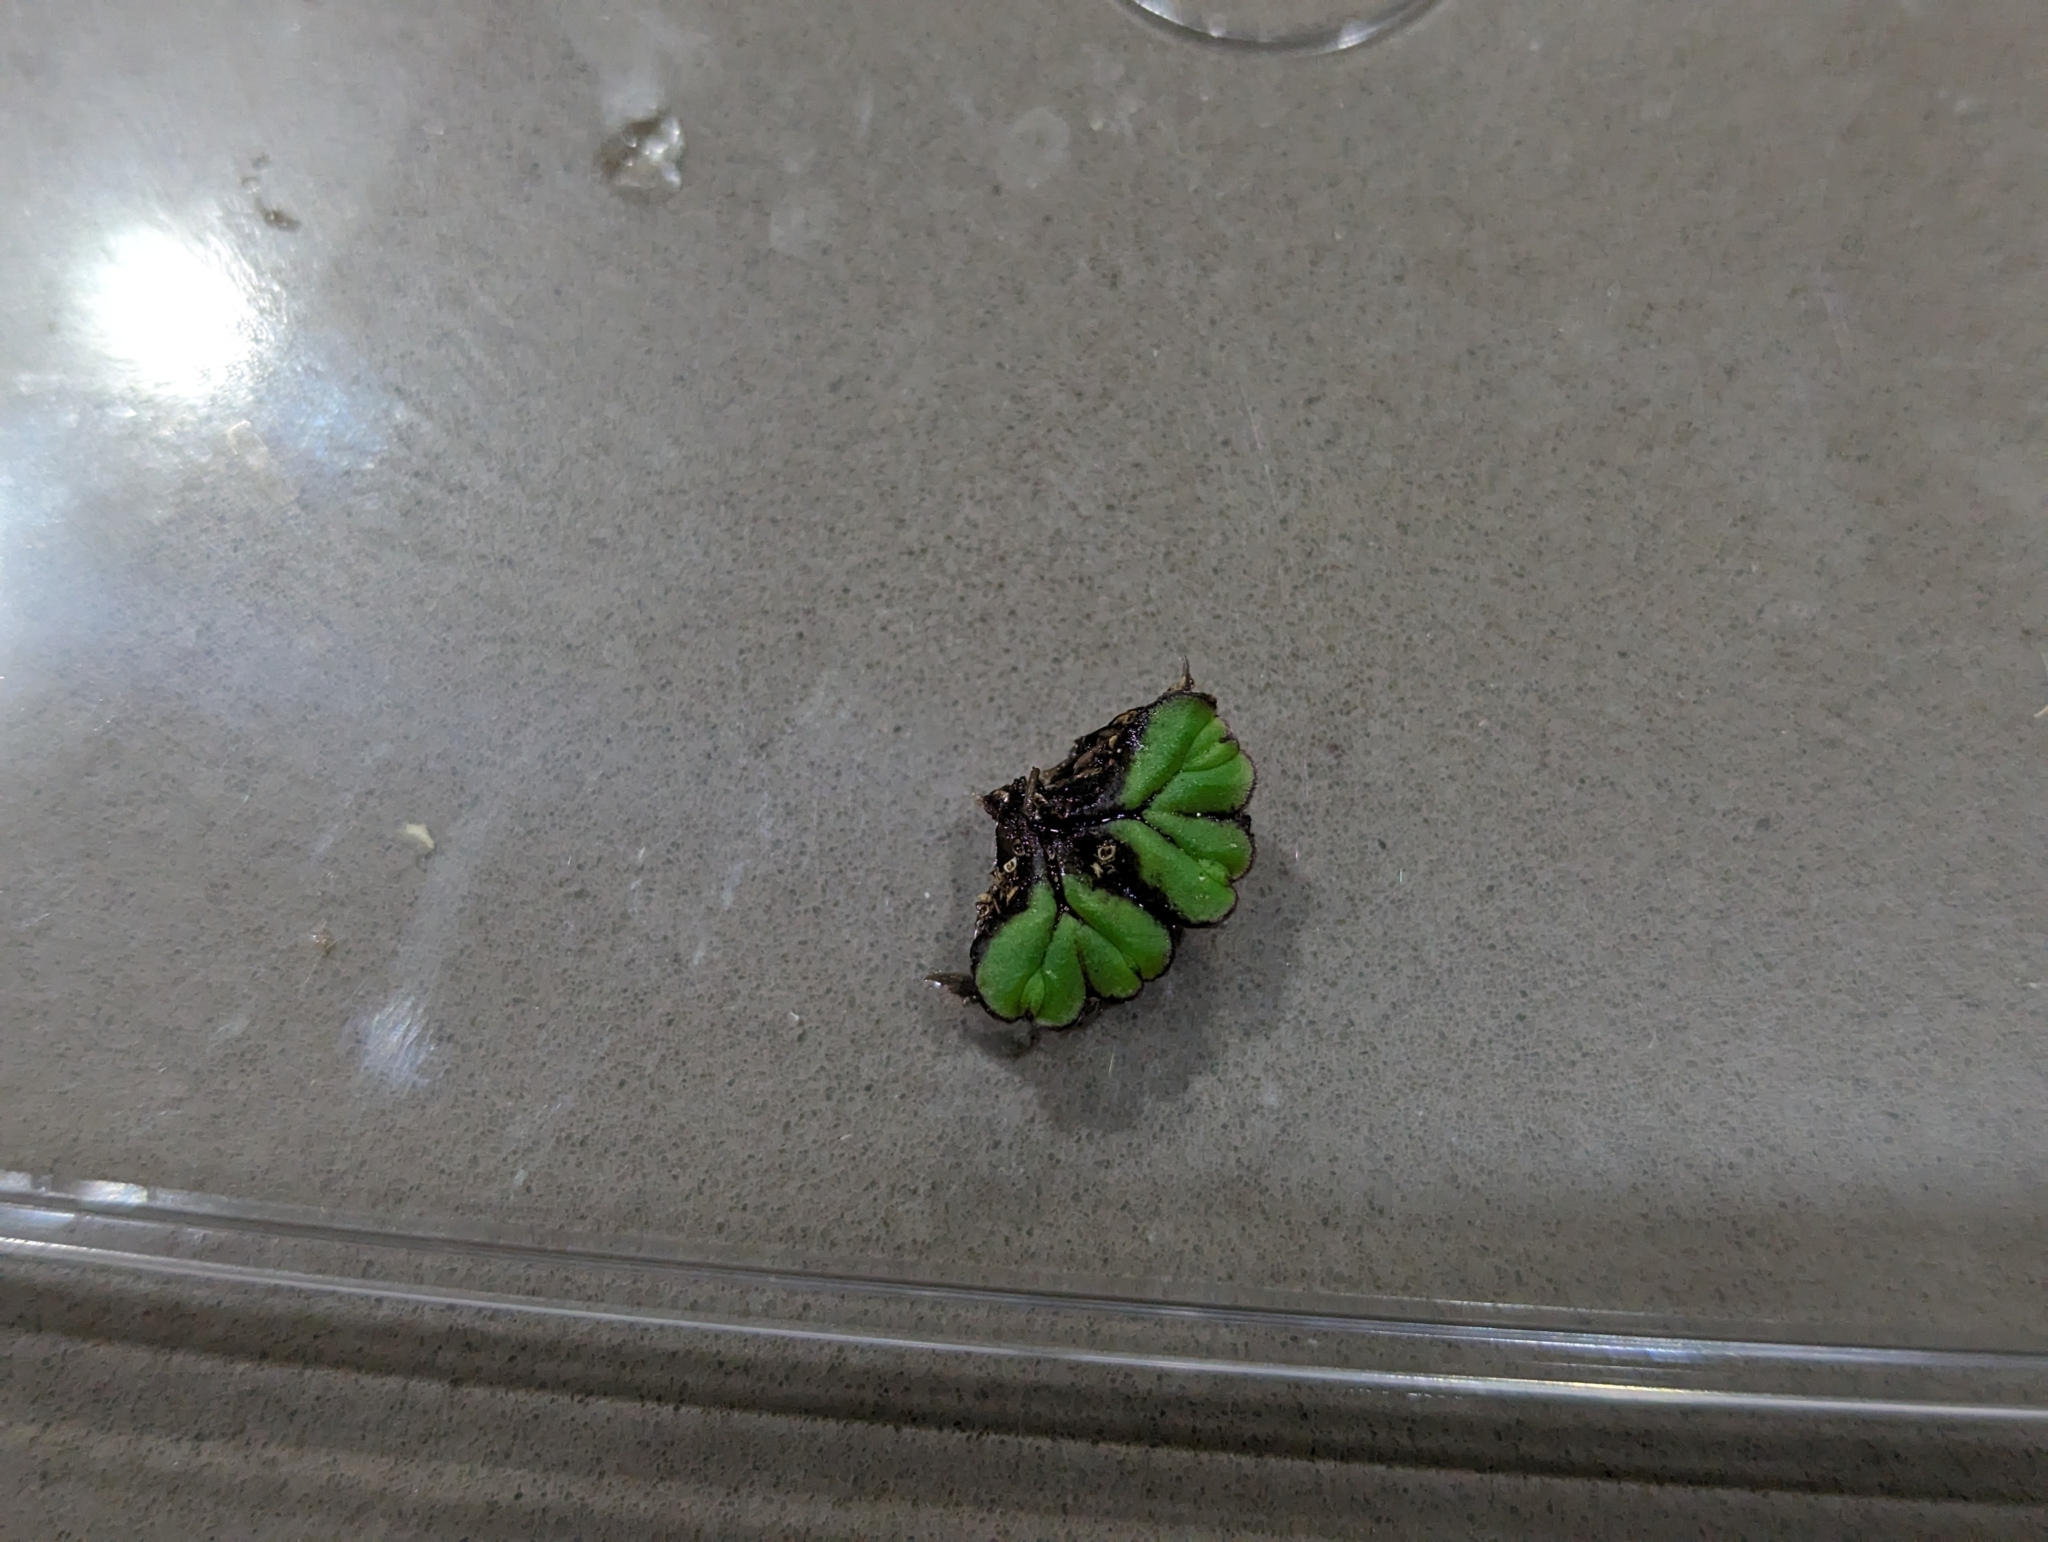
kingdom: Plantae
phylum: Marchantiophyta
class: Marchantiopsida
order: Marchantiales
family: Ricciaceae
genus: Ricciocarpos
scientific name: Ricciocarpos natans
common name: Purple-fringed liverwort
